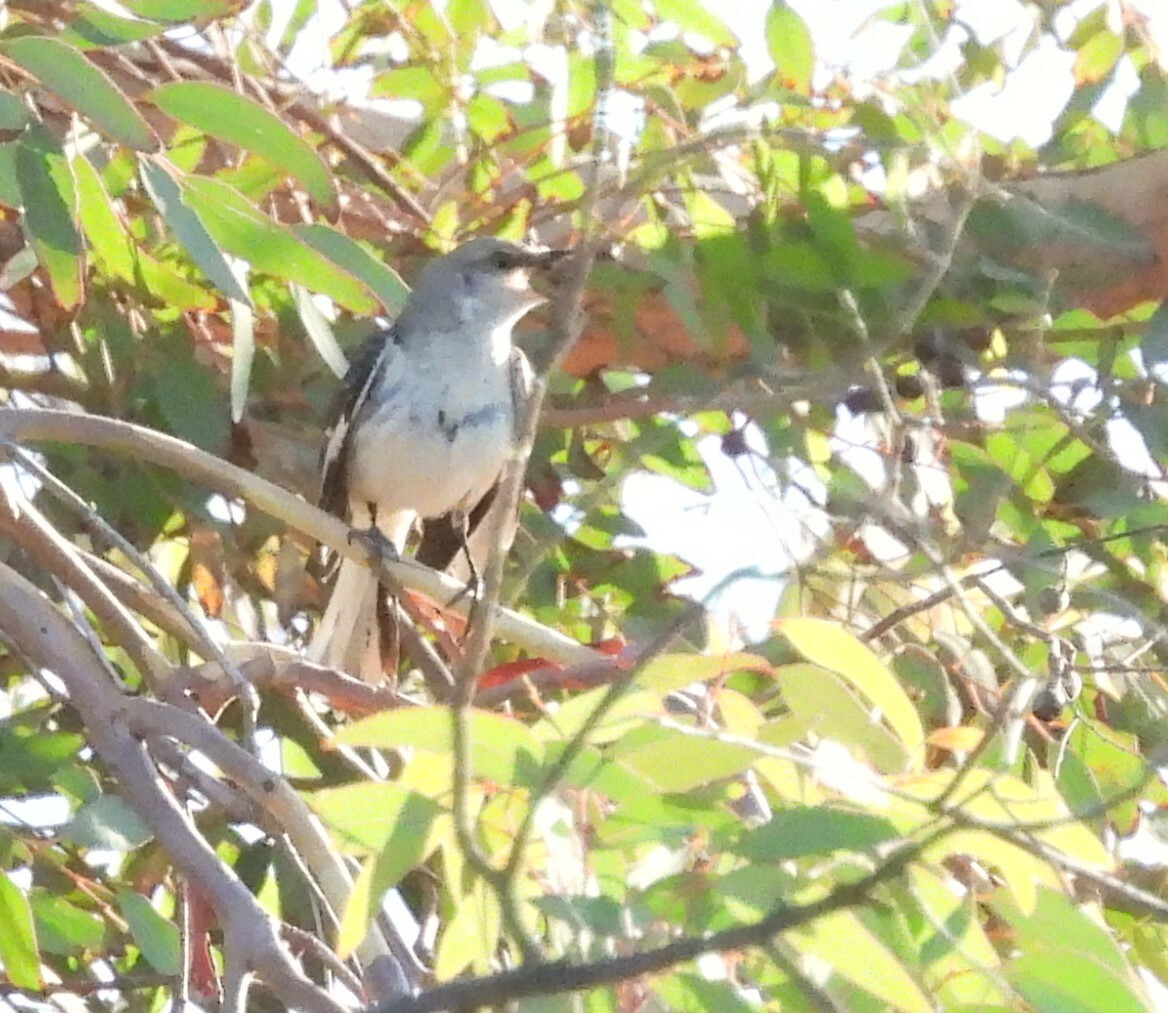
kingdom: Animalia
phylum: Chordata
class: Aves
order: Passeriformes
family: Mimidae
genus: Mimus
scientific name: Mimus polyglottos
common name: Northern mockingbird
